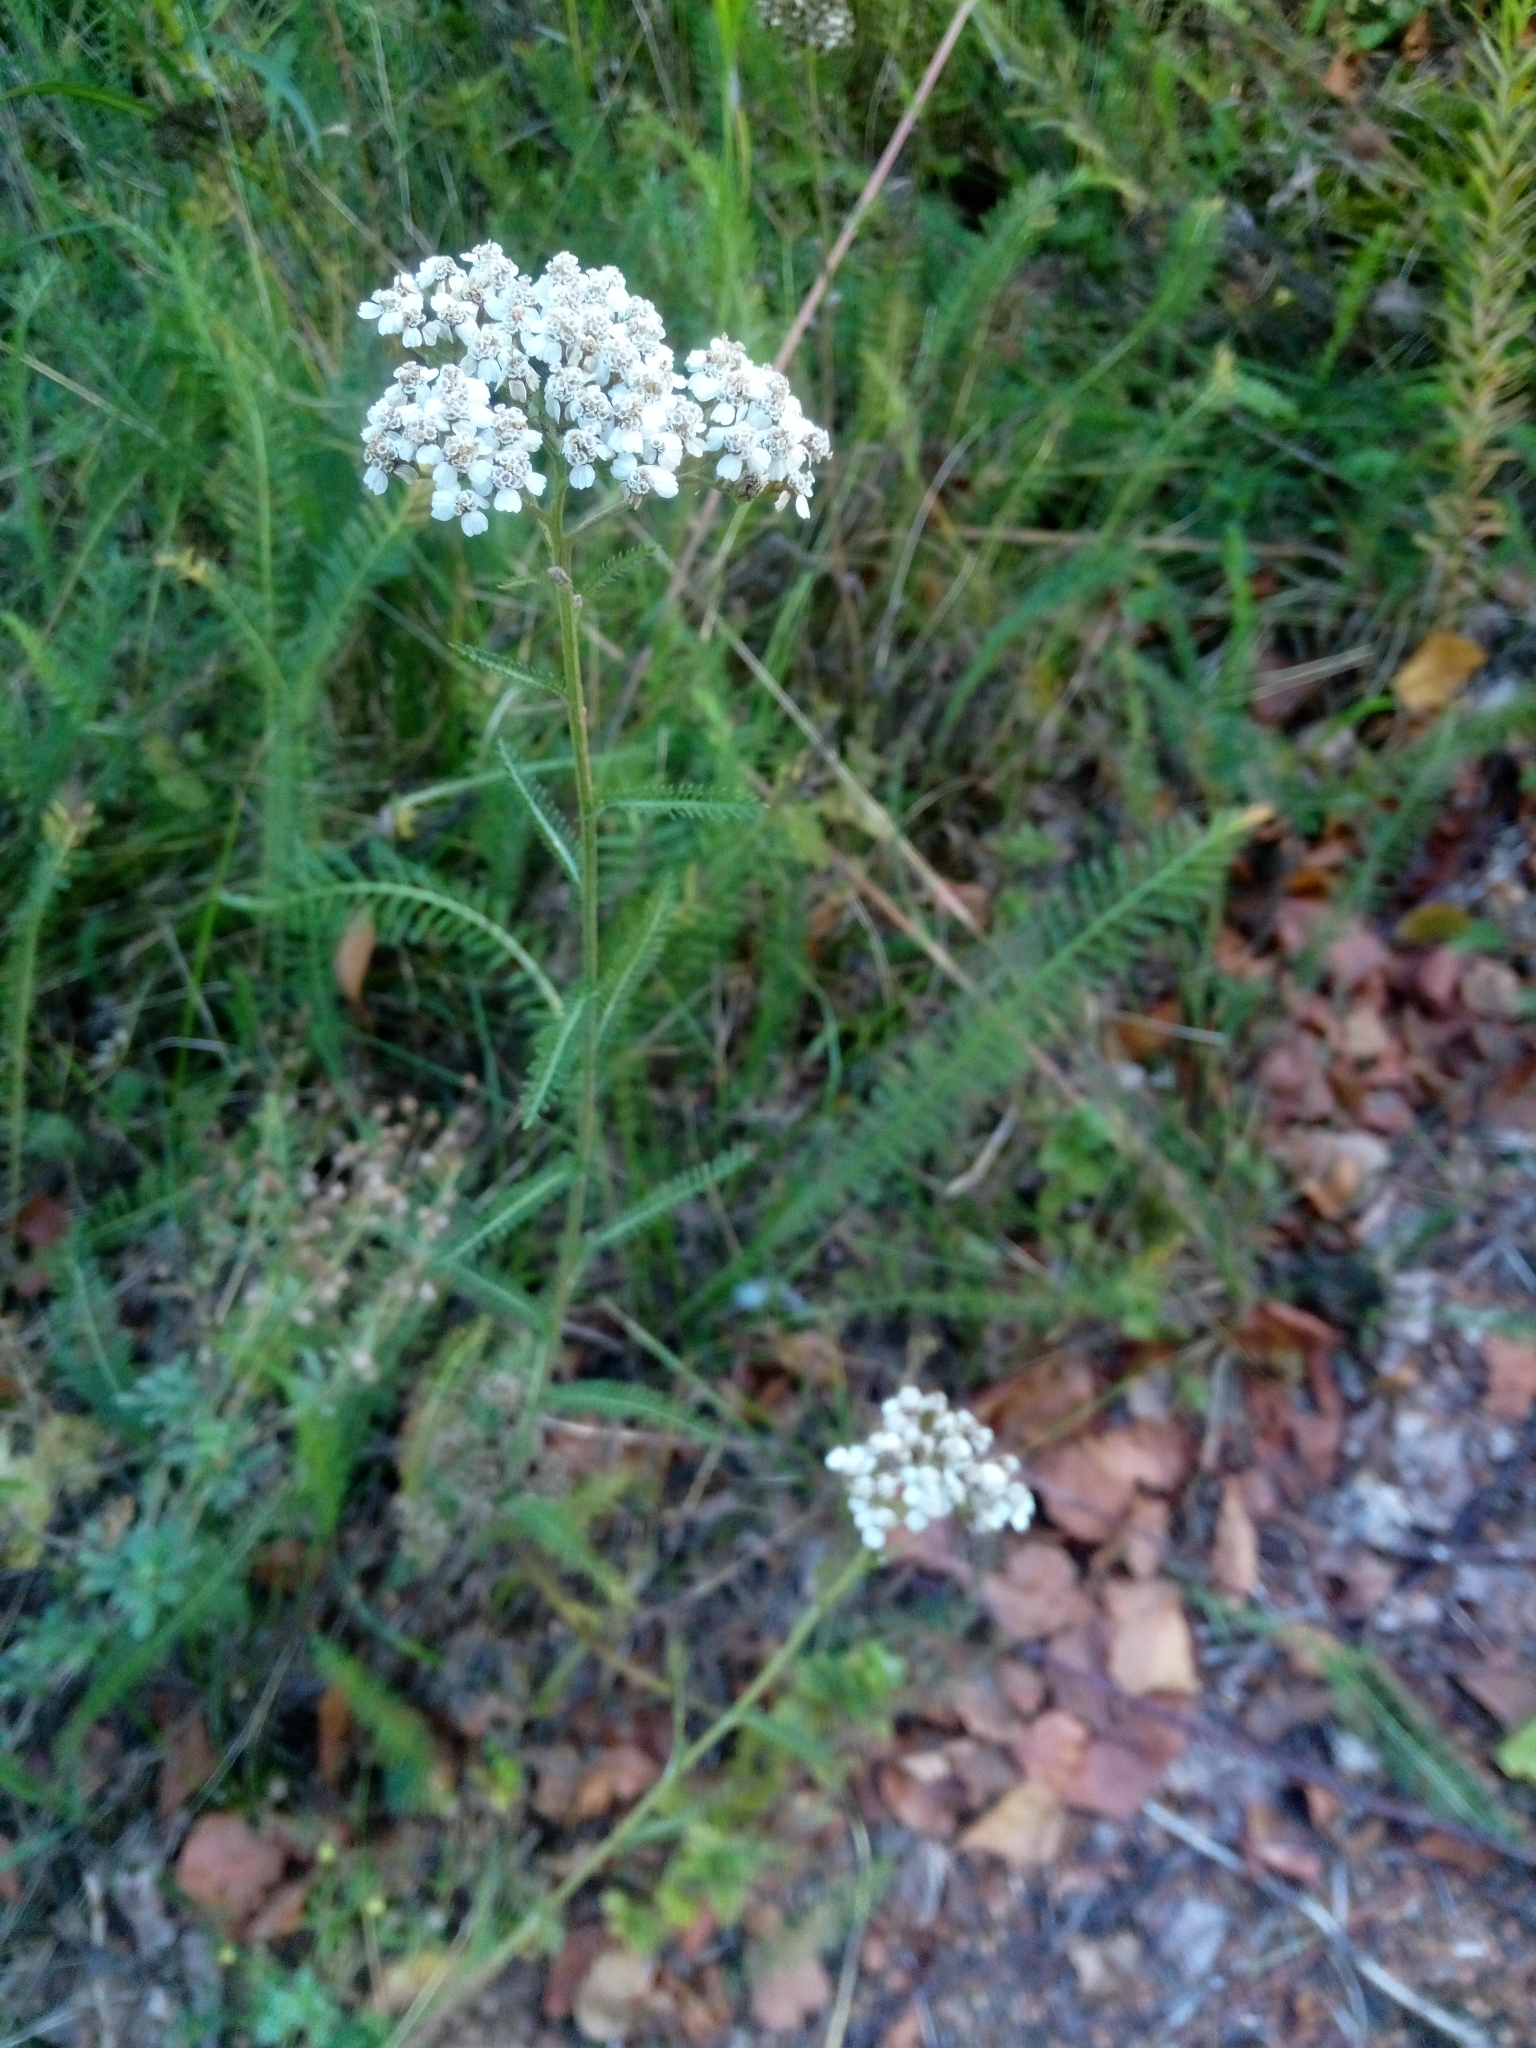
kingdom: Plantae
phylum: Tracheophyta
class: Magnoliopsida
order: Asterales
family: Asteraceae
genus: Achillea
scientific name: Achillea millefolium
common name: Yarrow
